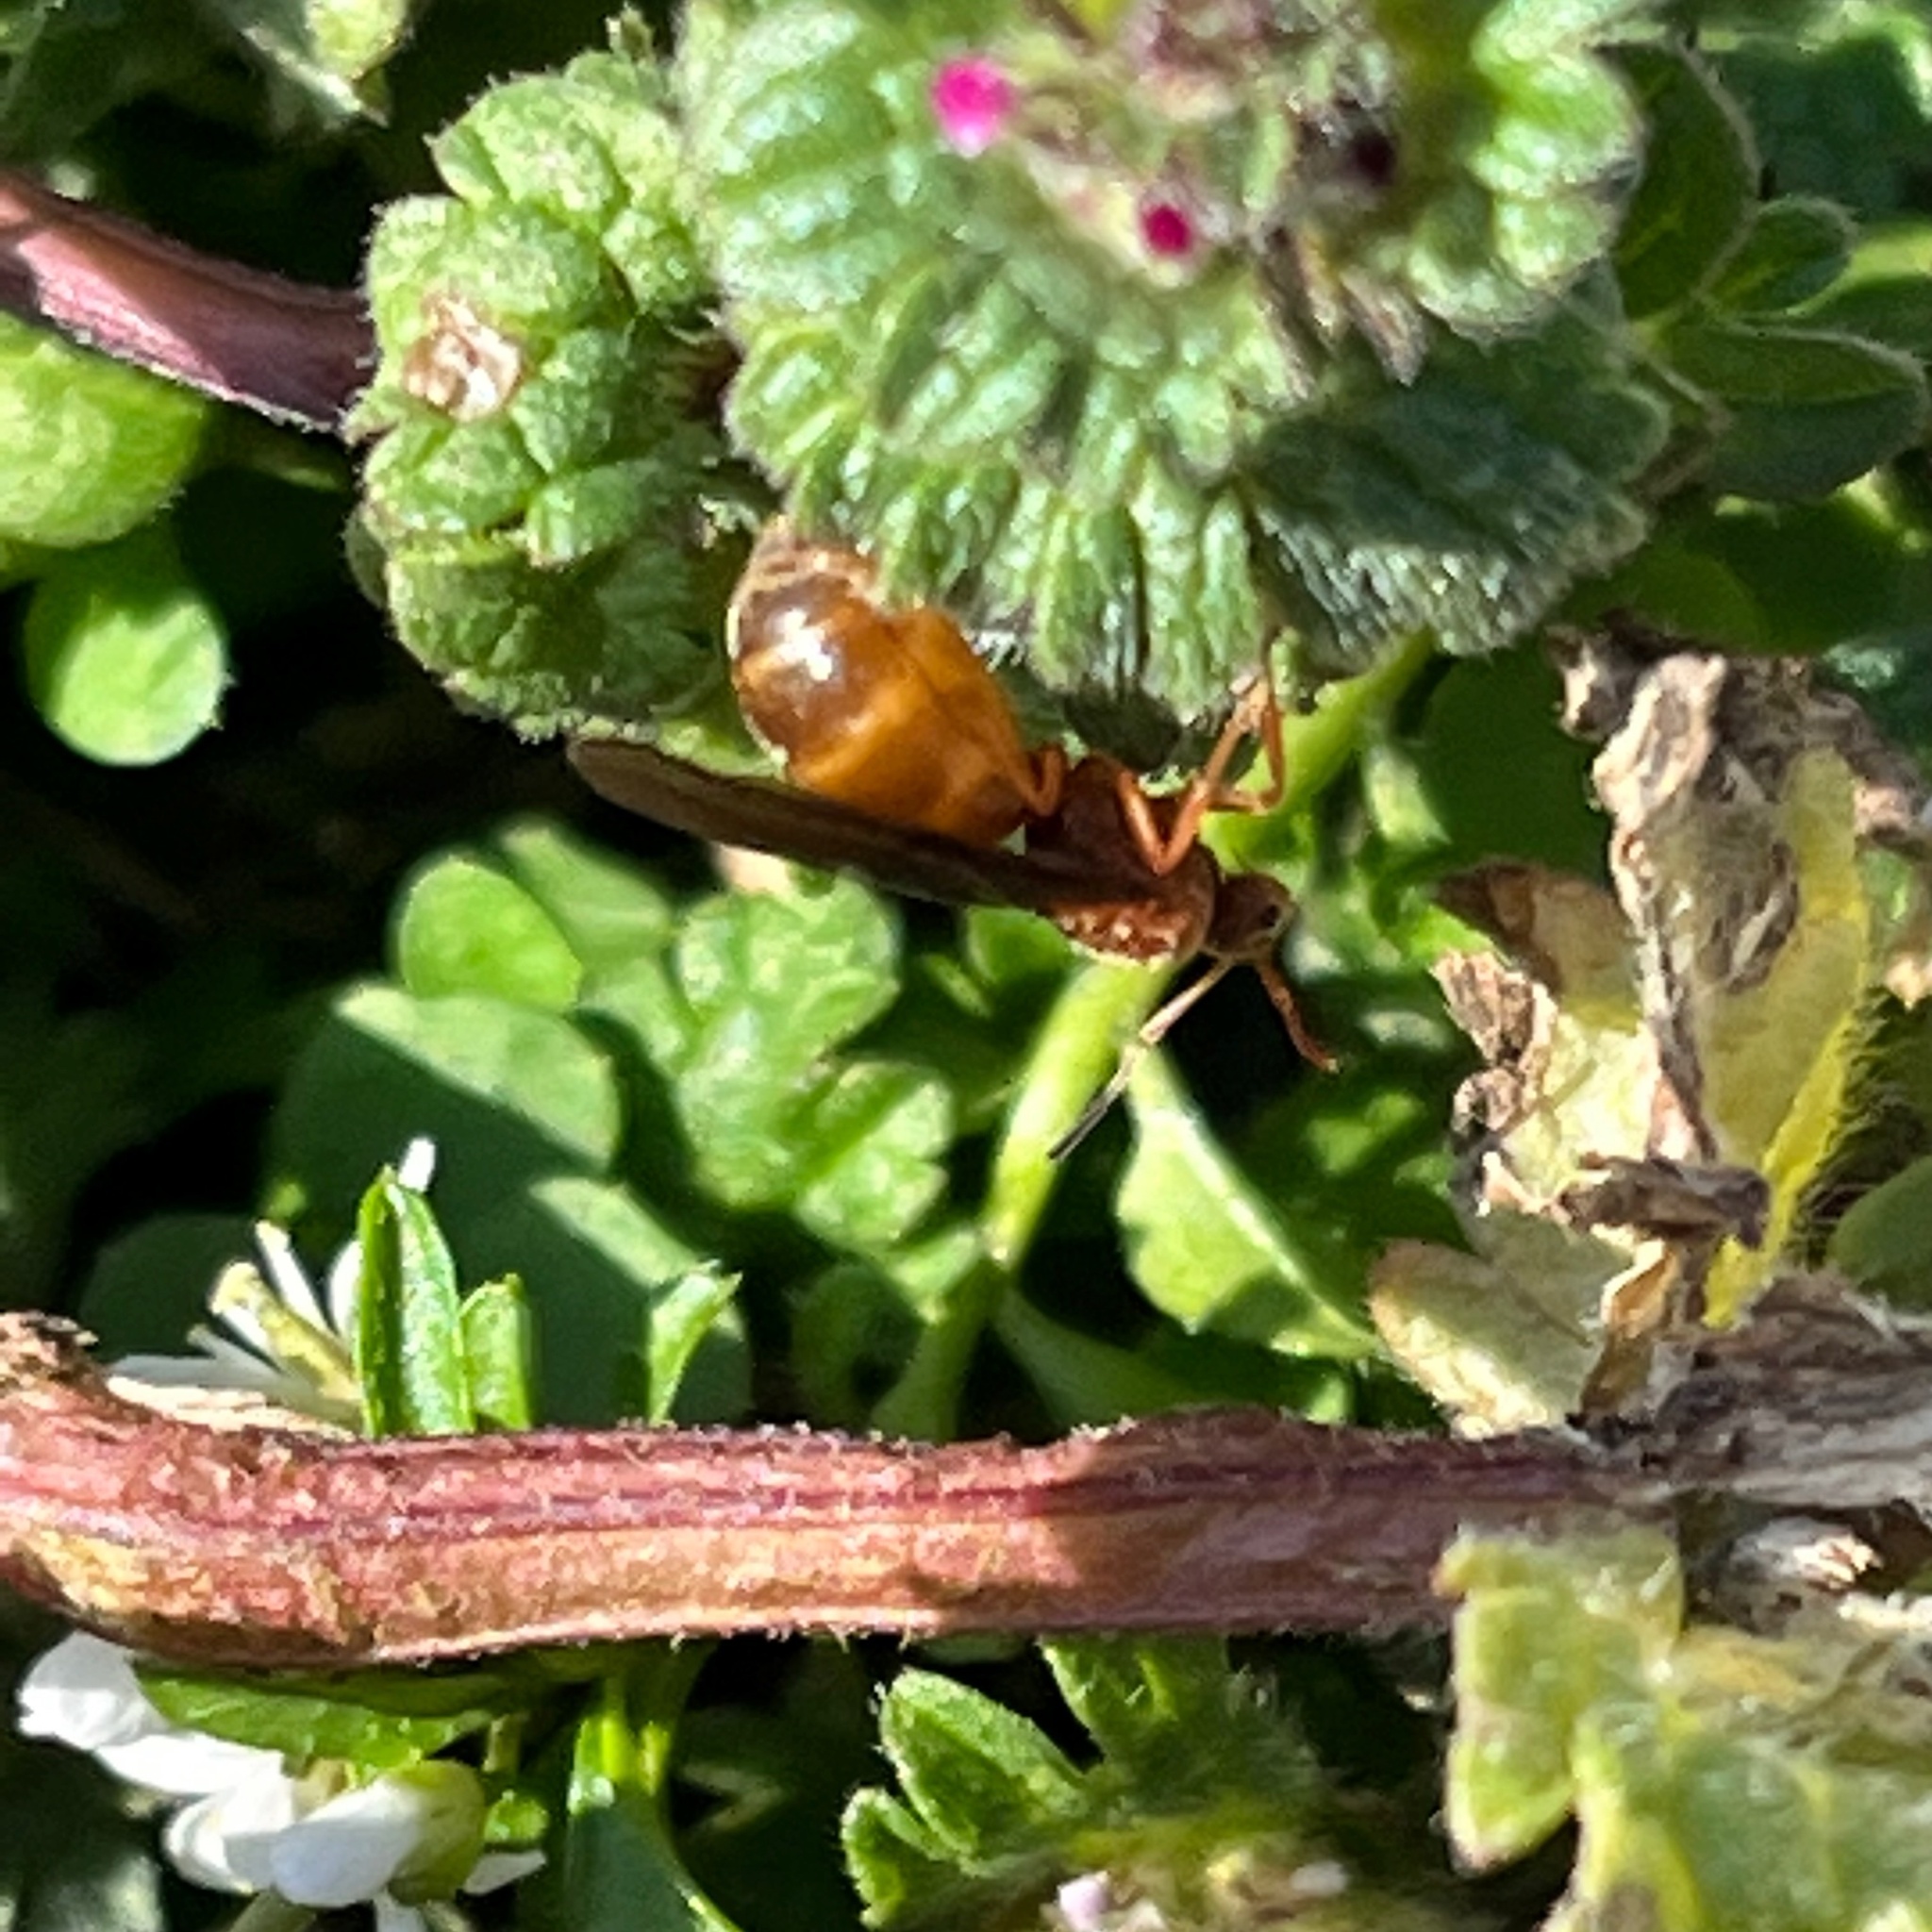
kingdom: Animalia
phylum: Arthropoda
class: Insecta
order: Hymenoptera
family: Formicidae
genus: Prenolepis
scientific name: Prenolepis imparis
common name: Small honey ant
